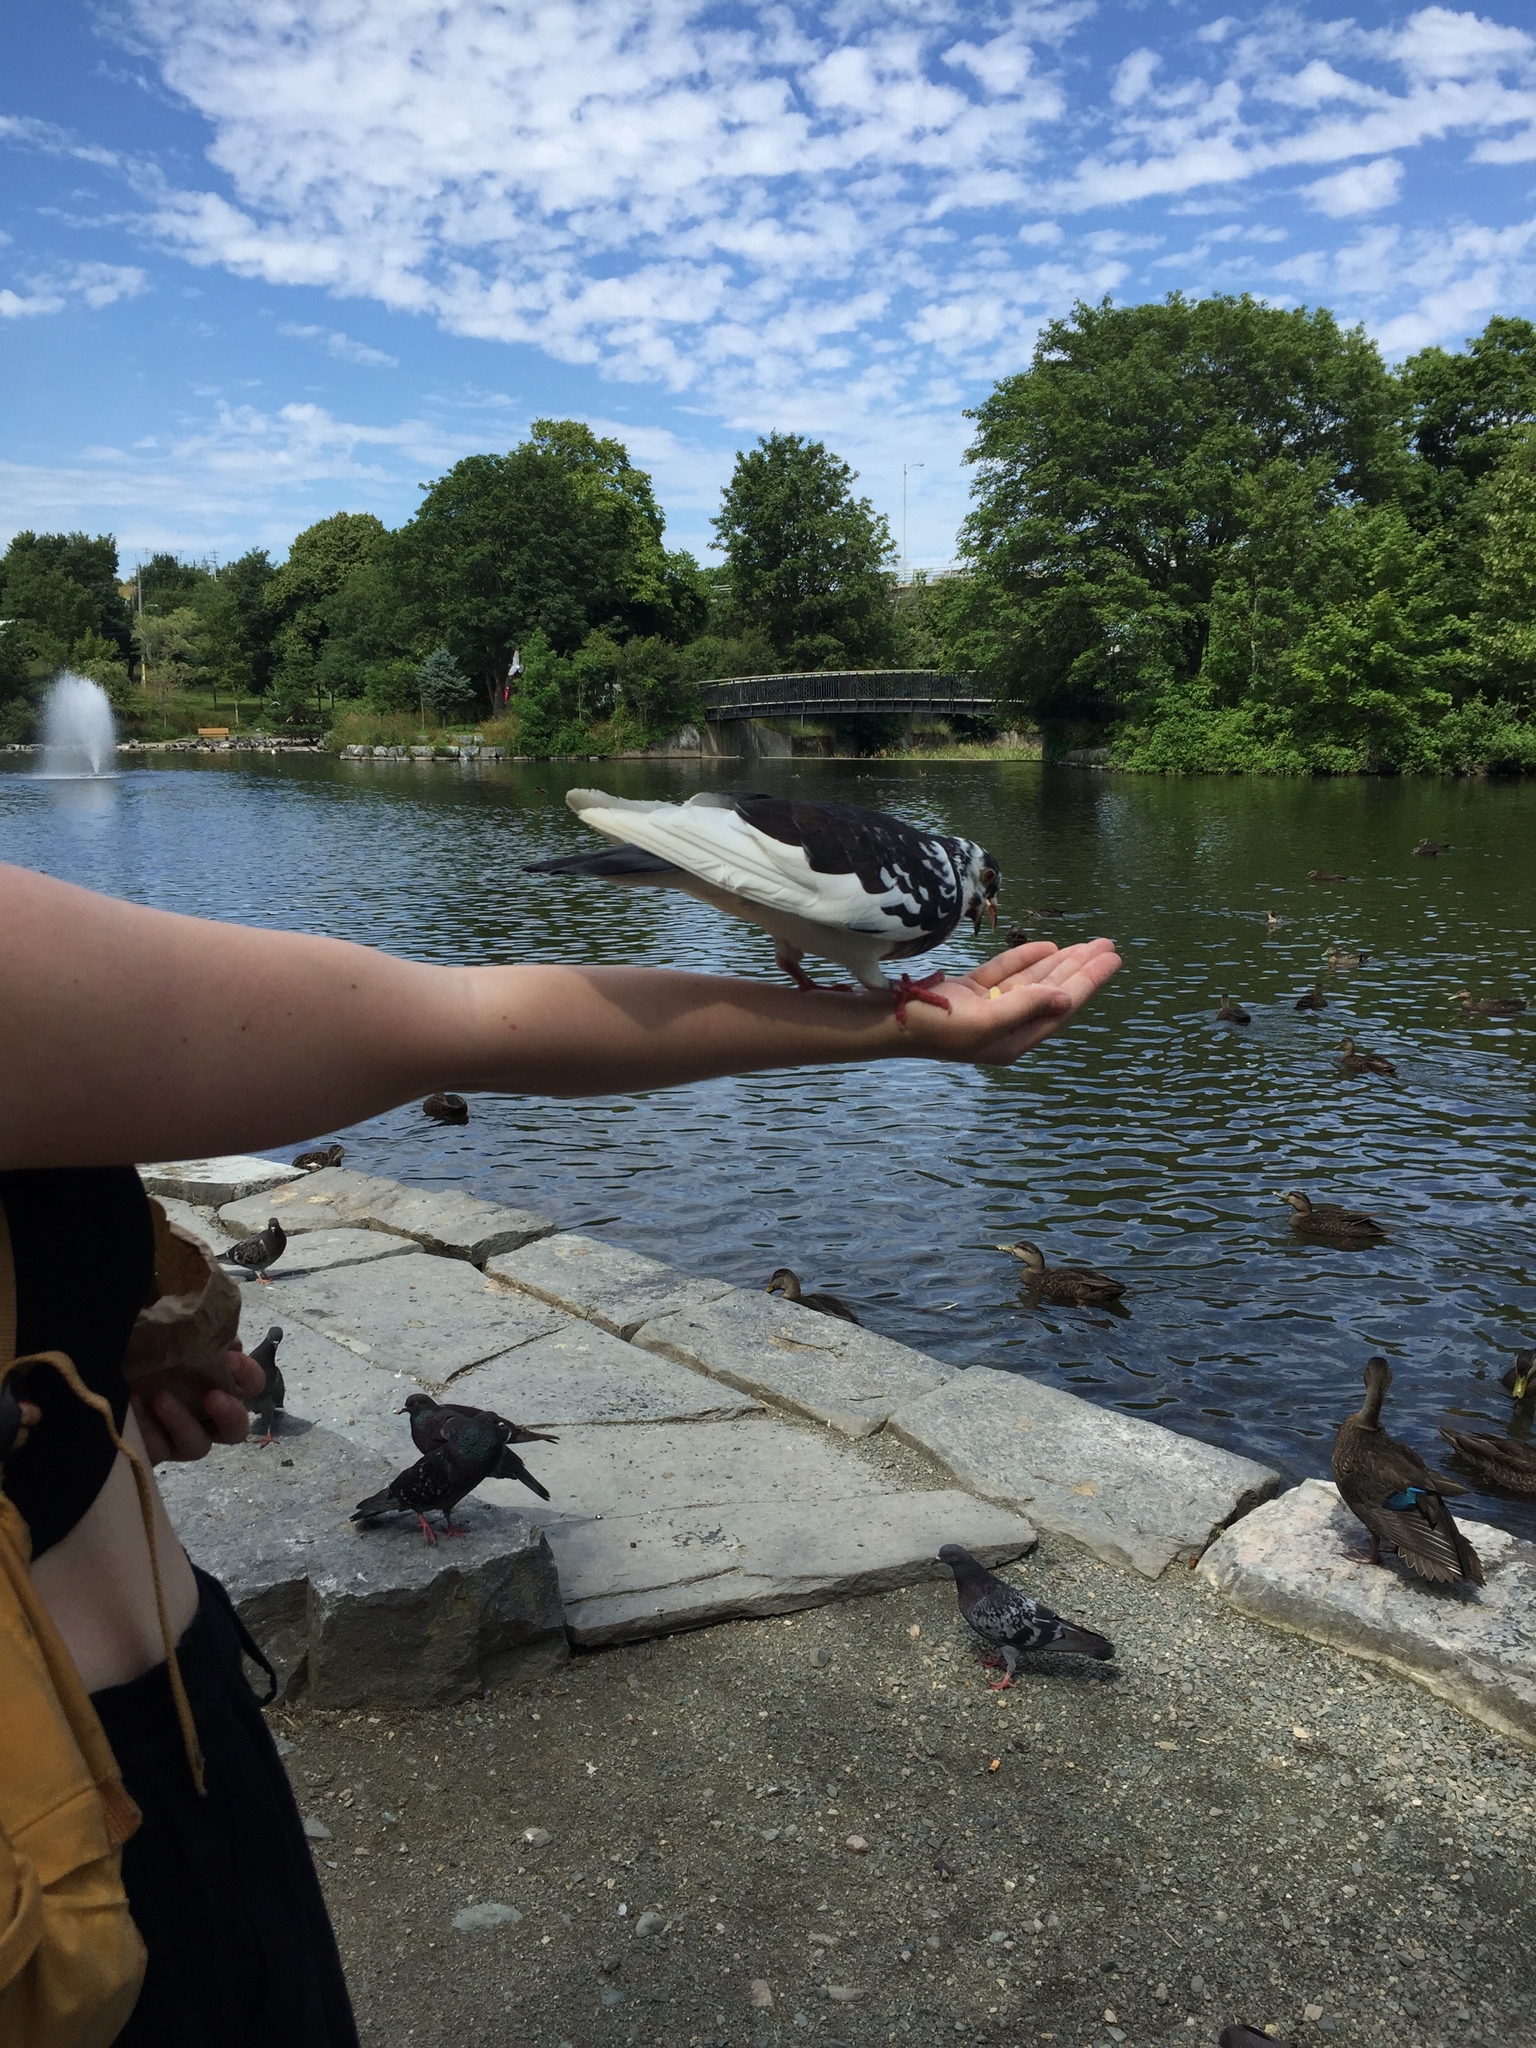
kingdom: Animalia
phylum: Chordata
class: Aves
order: Columbiformes
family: Columbidae
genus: Columba
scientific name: Columba livia
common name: Rock pigeon
